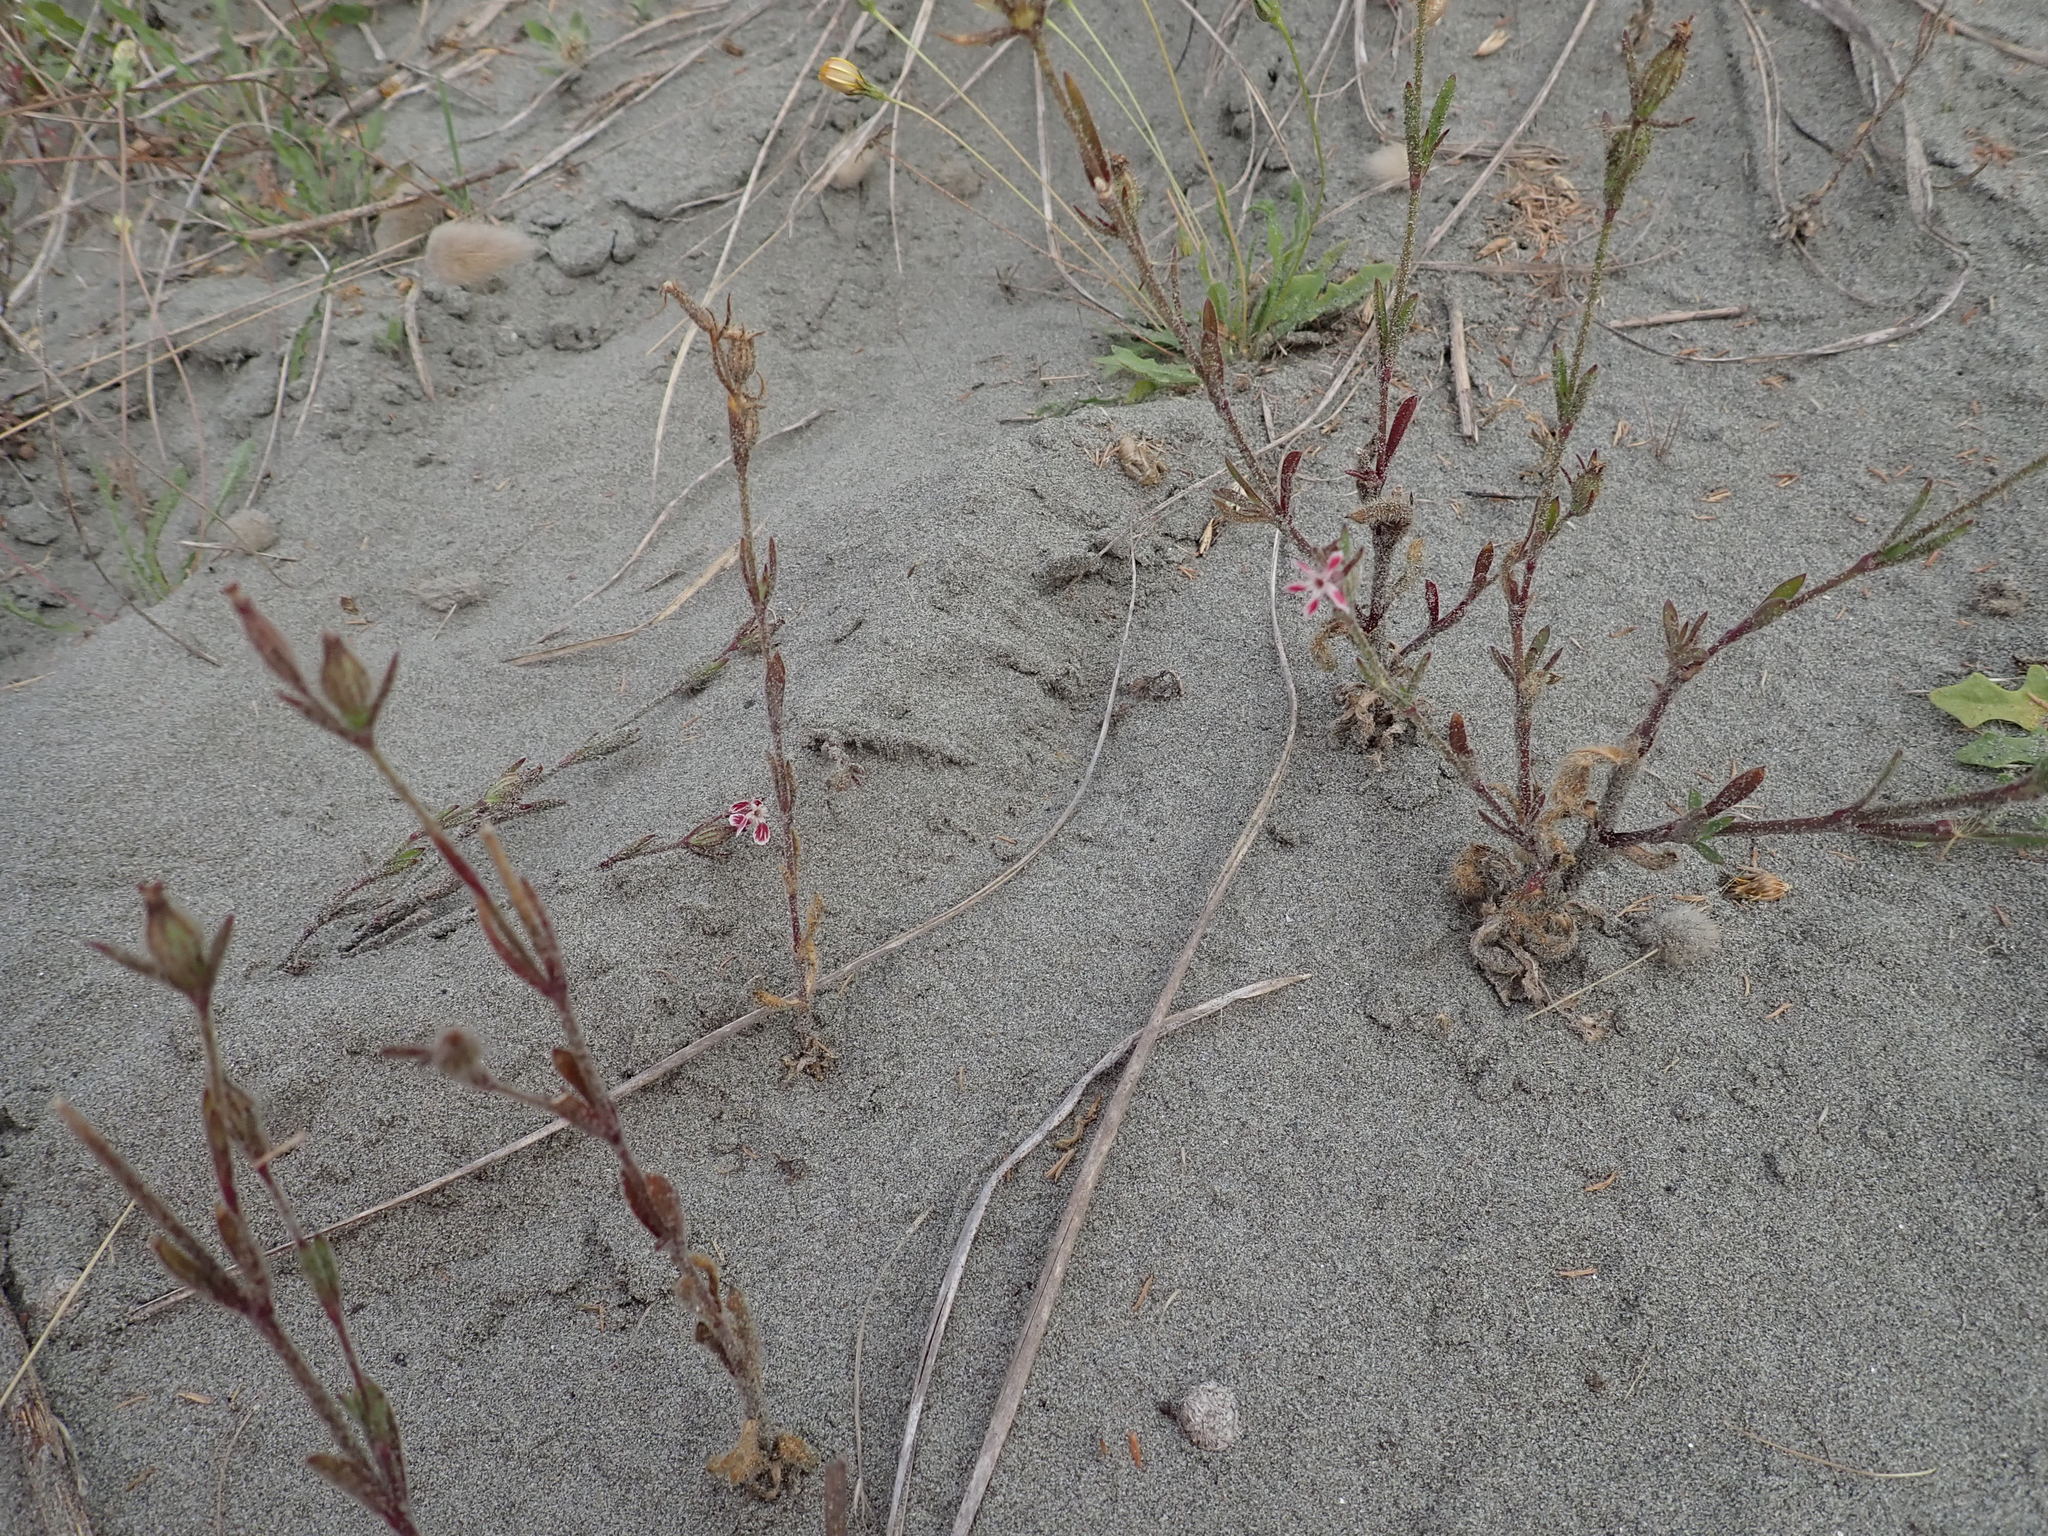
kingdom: Plantae
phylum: Tracheophyta
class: Magnoliopsida
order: Caryophyllales
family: Caryophyllaceae
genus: Silene
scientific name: Silene gallica
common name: Small-flowered catchfly
